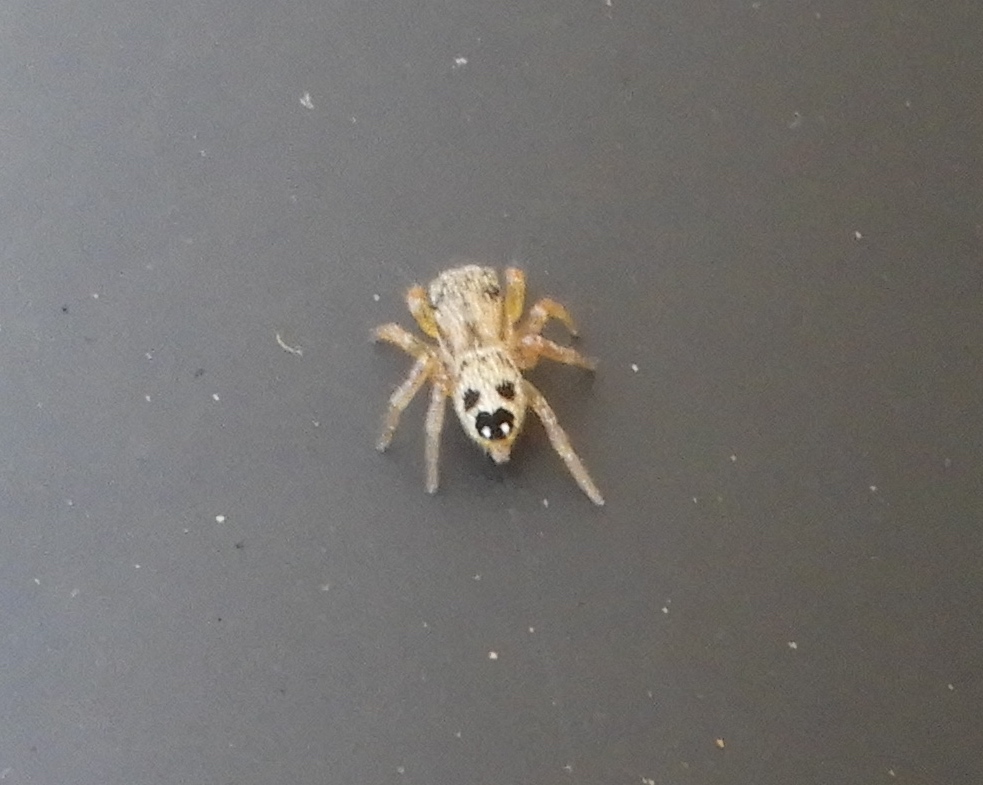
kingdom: Animalia
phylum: Arthropoda
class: Arachnida
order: Araneae
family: Salticidae
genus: Habronattus
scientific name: Habronattus
